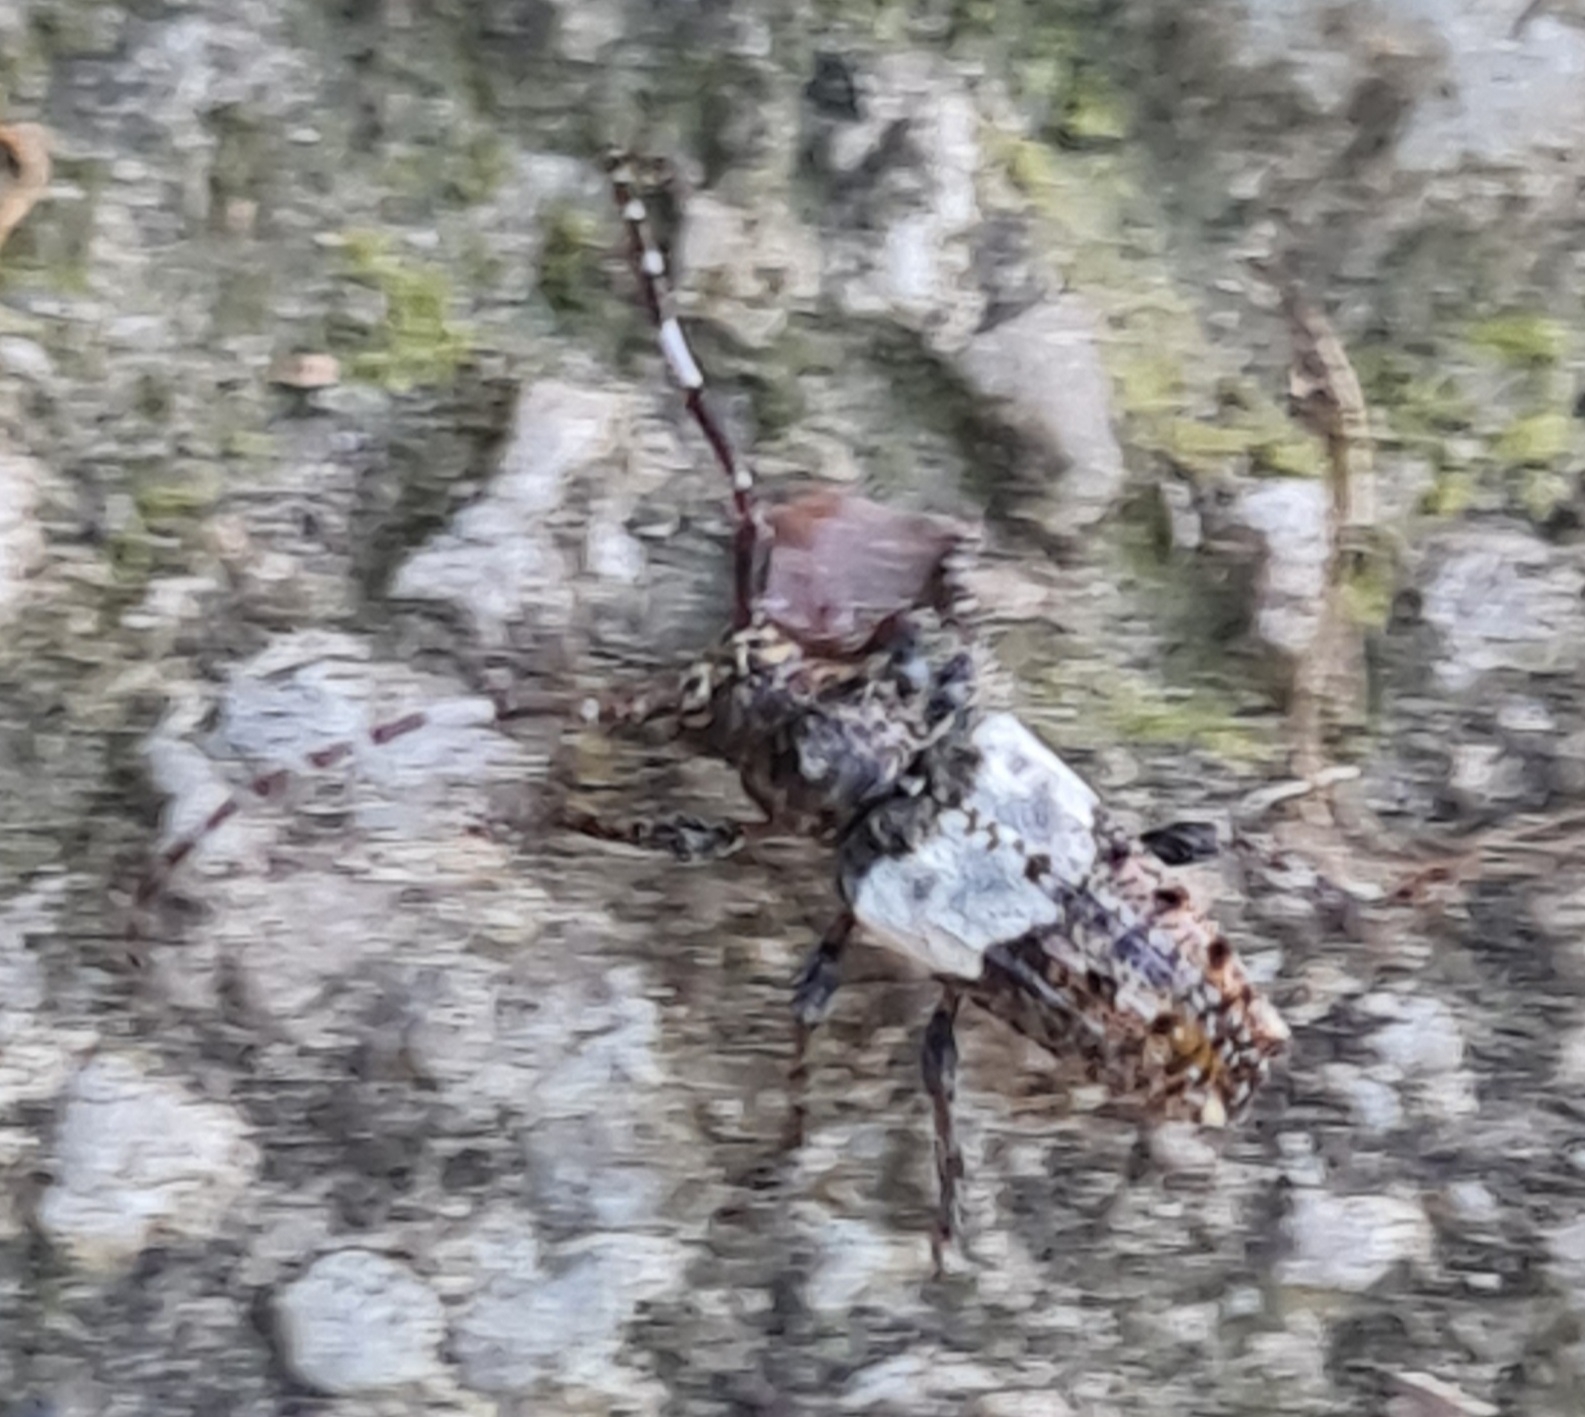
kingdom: Animalia
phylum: Arthropoda
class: Insecta
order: Coleoptera
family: Cerambycidae
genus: Pogonocherus
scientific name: Pogonocherus hispidulus
